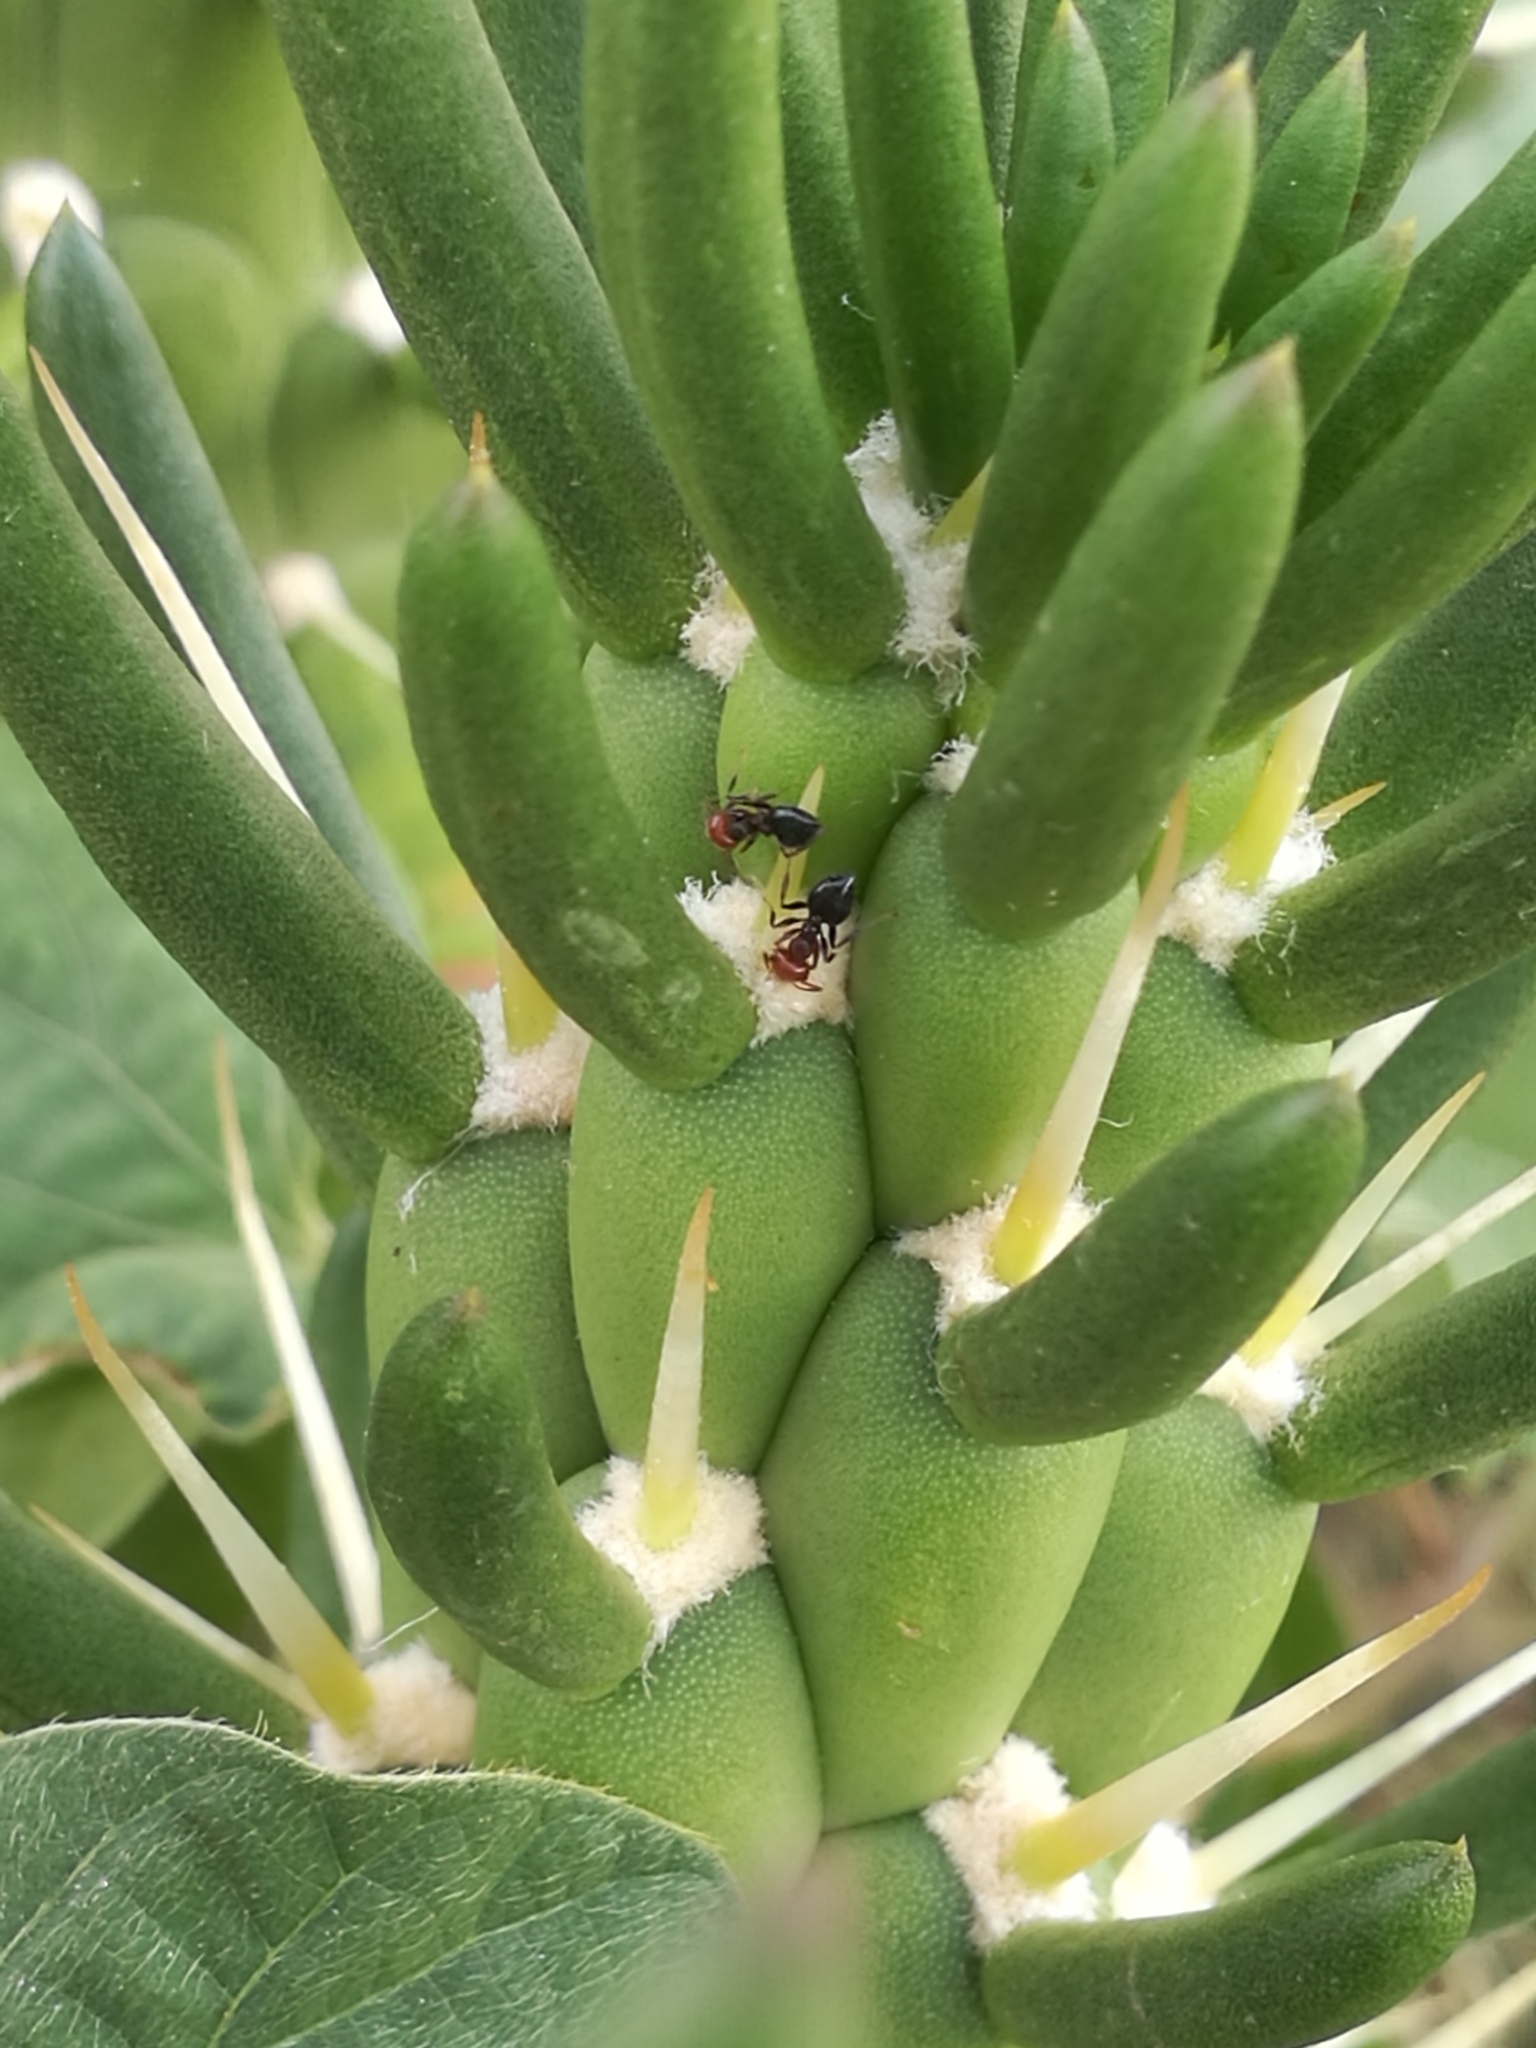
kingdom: Animalia
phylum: Arthropoda
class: Insecta
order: Hymenoptera
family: Formicidae
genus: Crematogaster
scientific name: Crematogaster scutellaris
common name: Fourmi du liège
